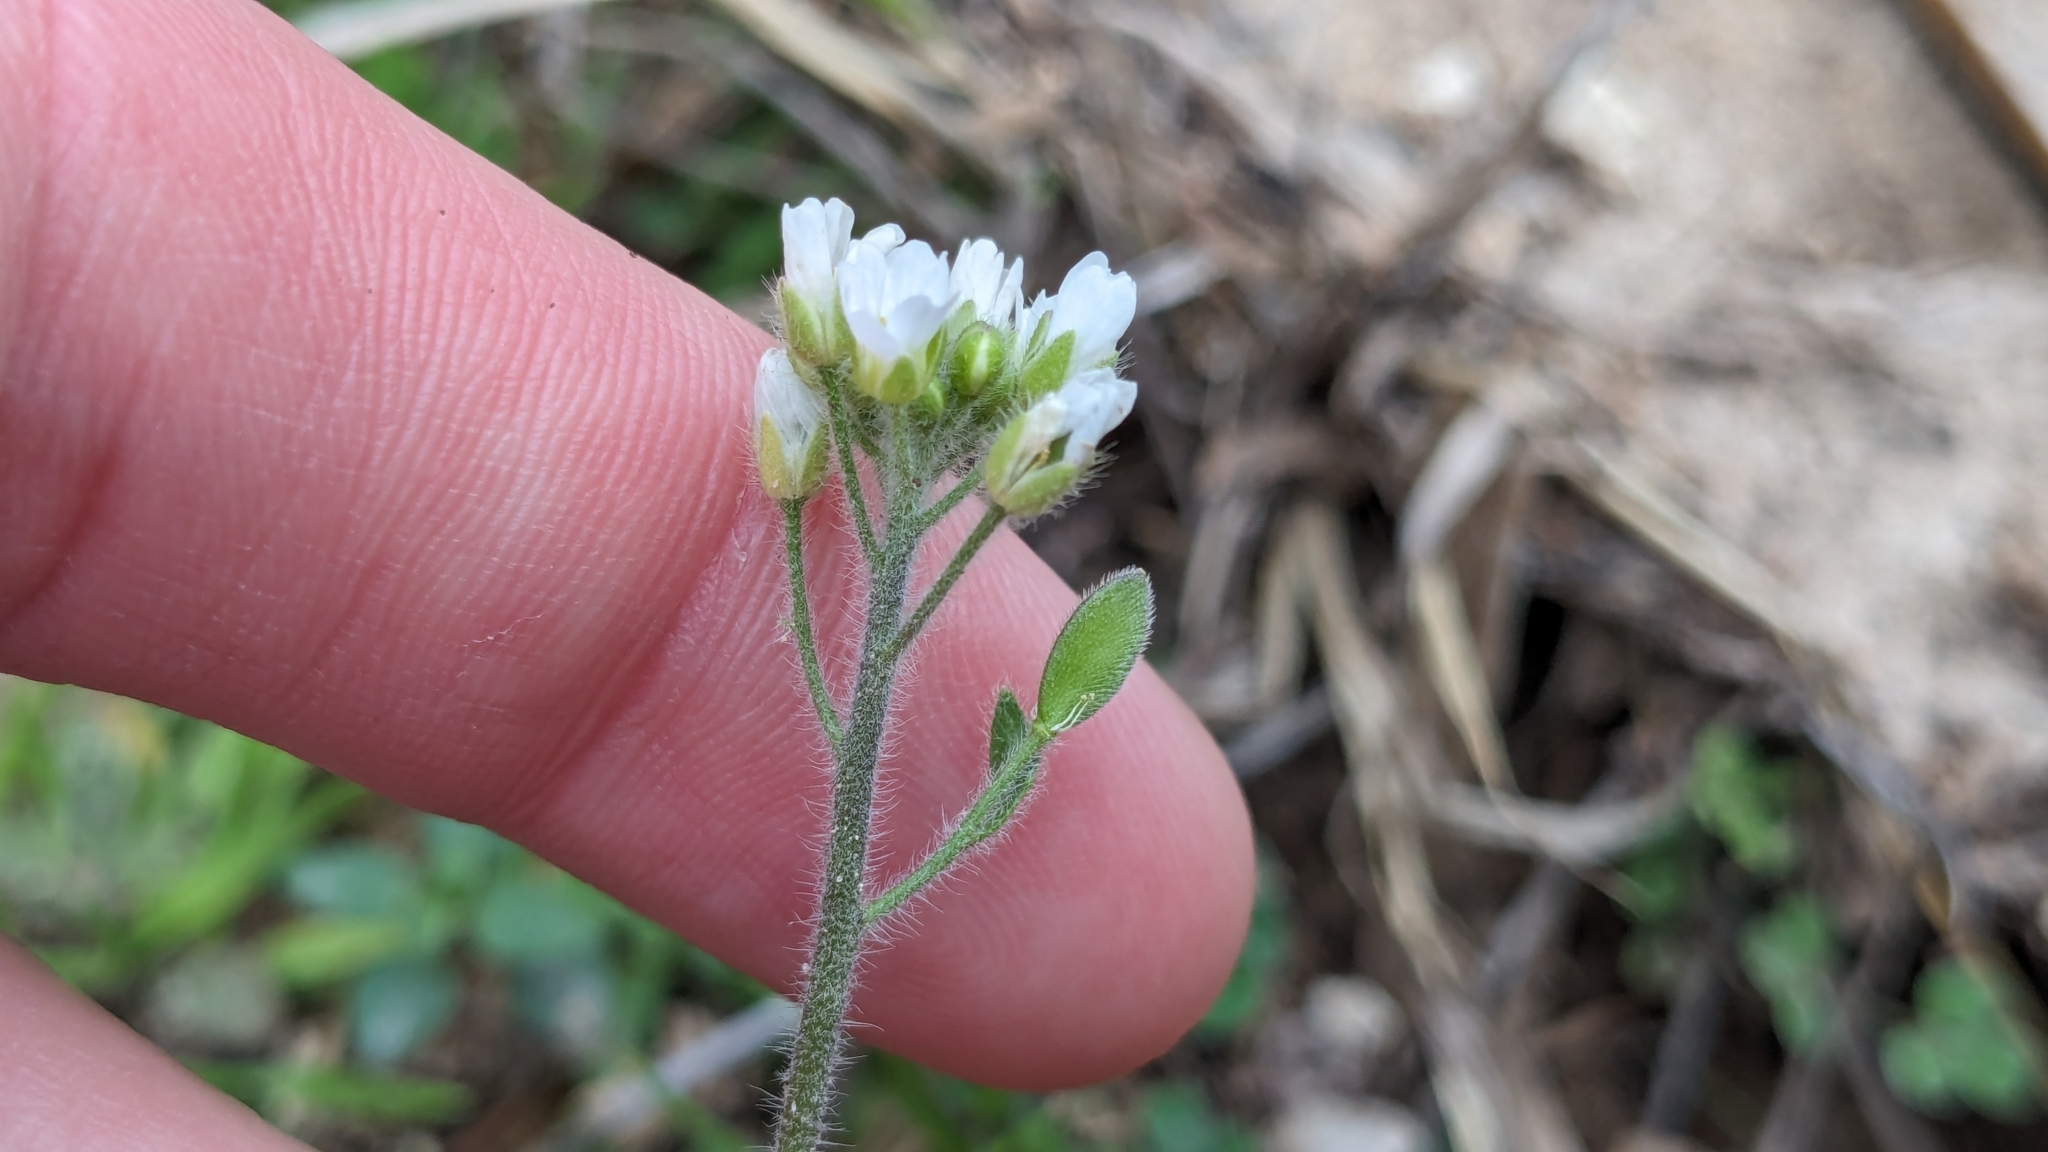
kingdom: Plantae
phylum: Tracheophyta
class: Magnoliopsida
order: Brassicales
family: Brassicaceae
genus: Tomostima
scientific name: Tomostima platycarpa
